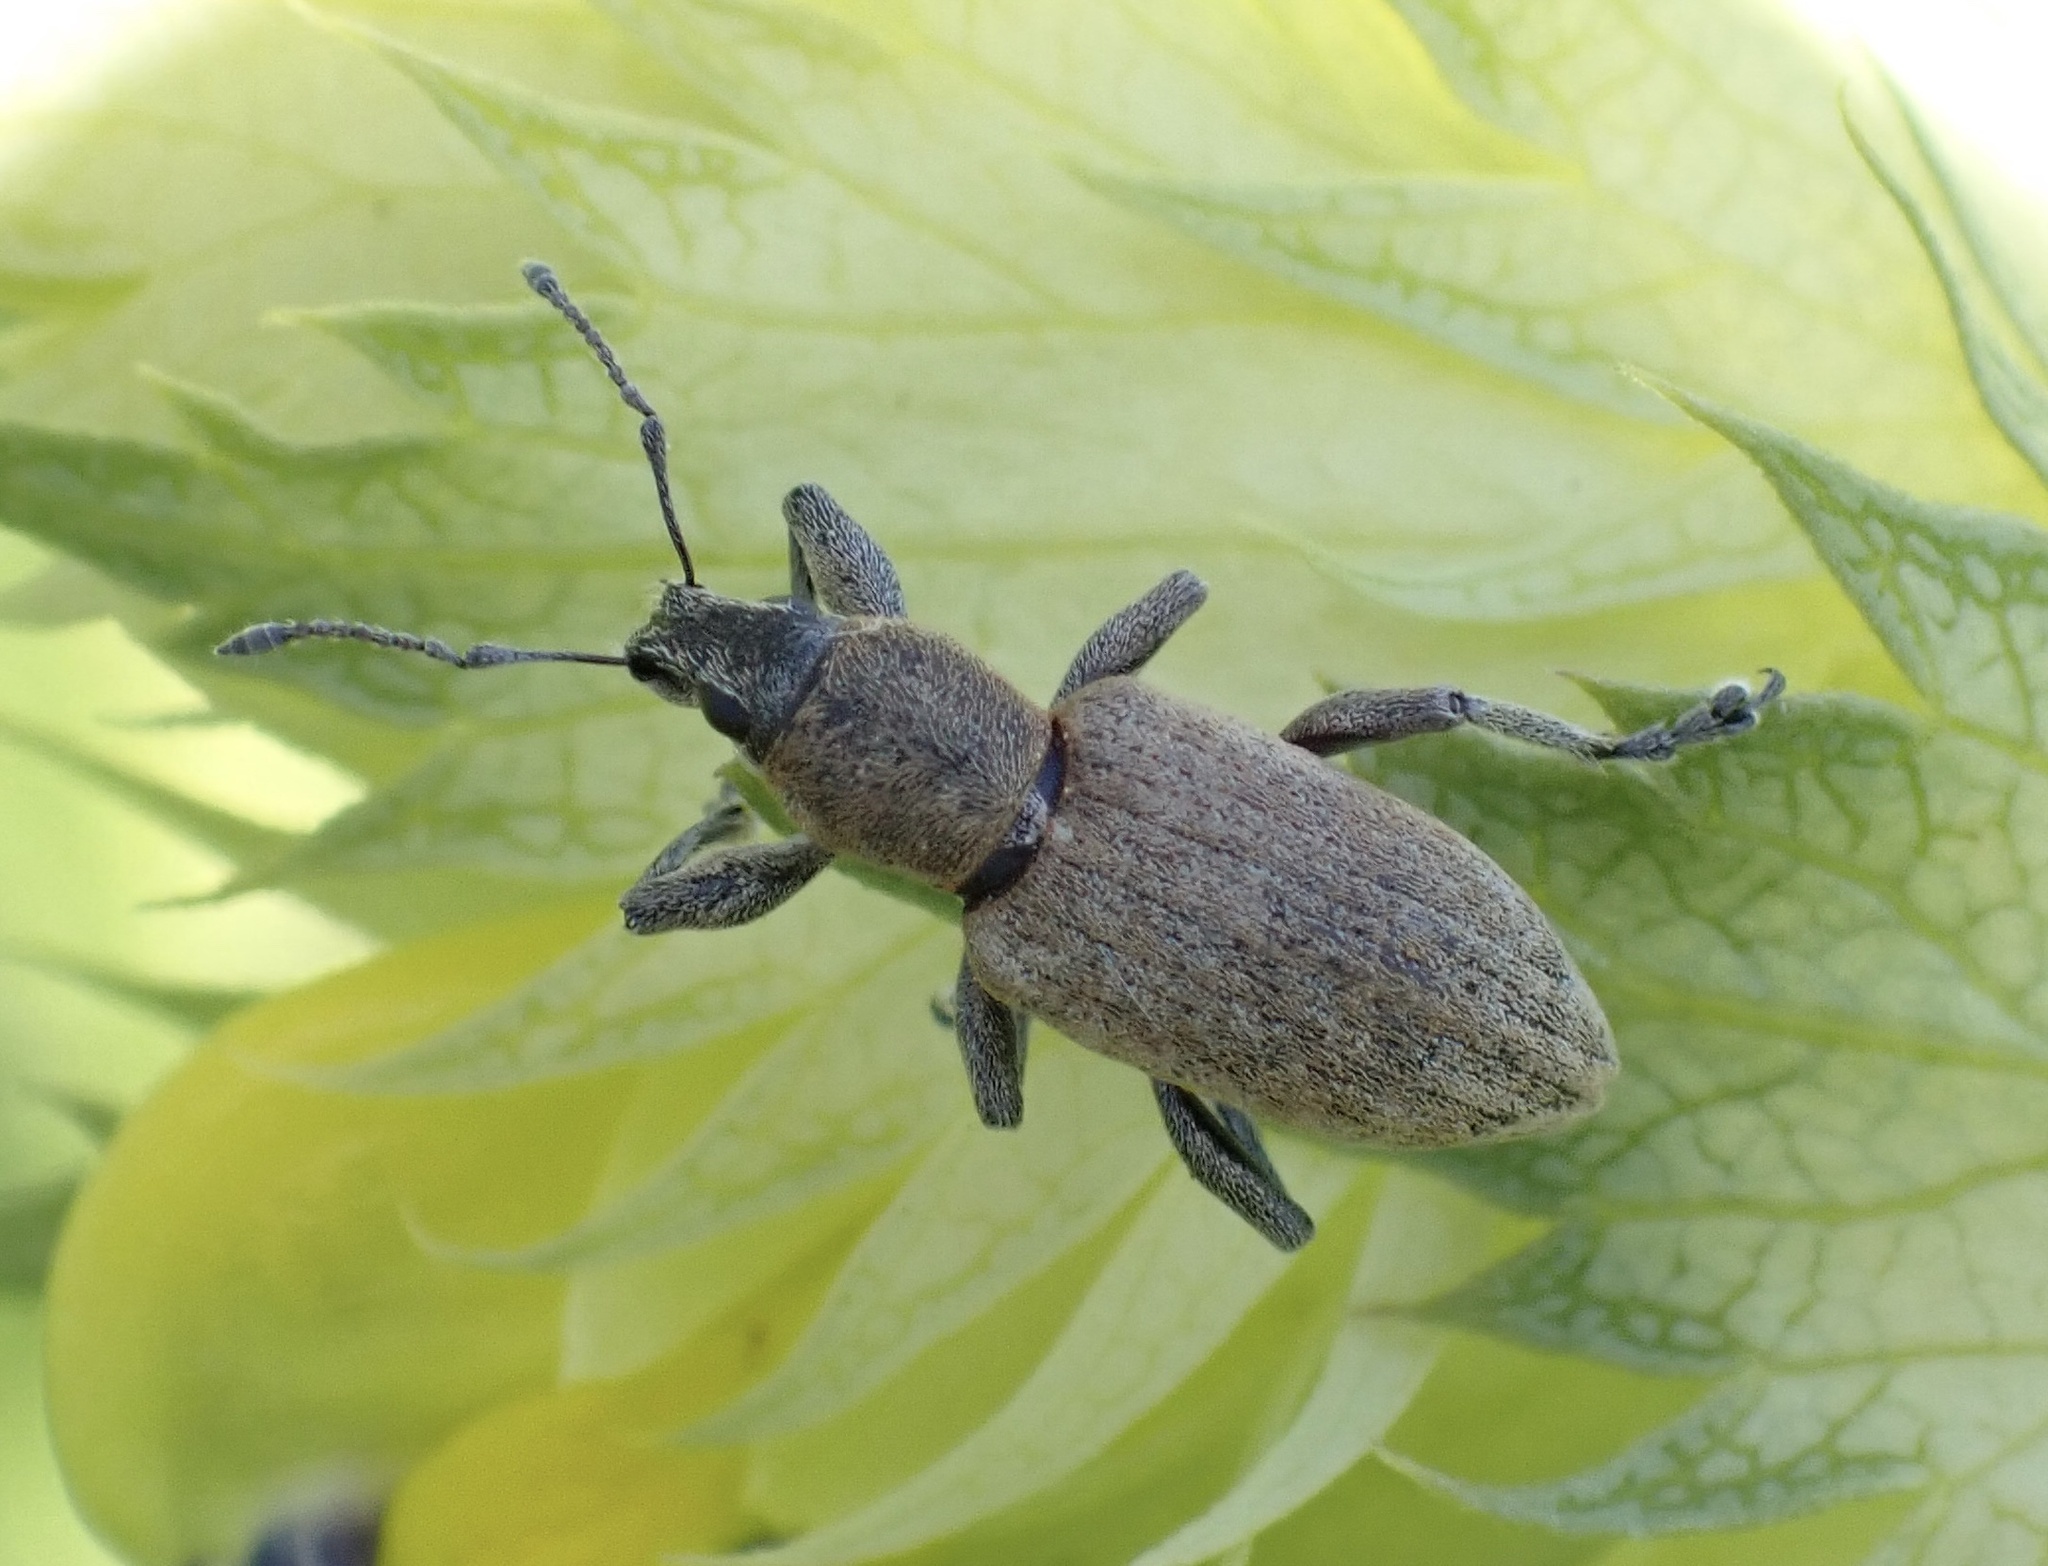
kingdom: Animalia
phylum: Arthropoda
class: Insecta
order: Coleoptera
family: Curculionidae
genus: Tanymecus
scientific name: Tanymecus palliatus
